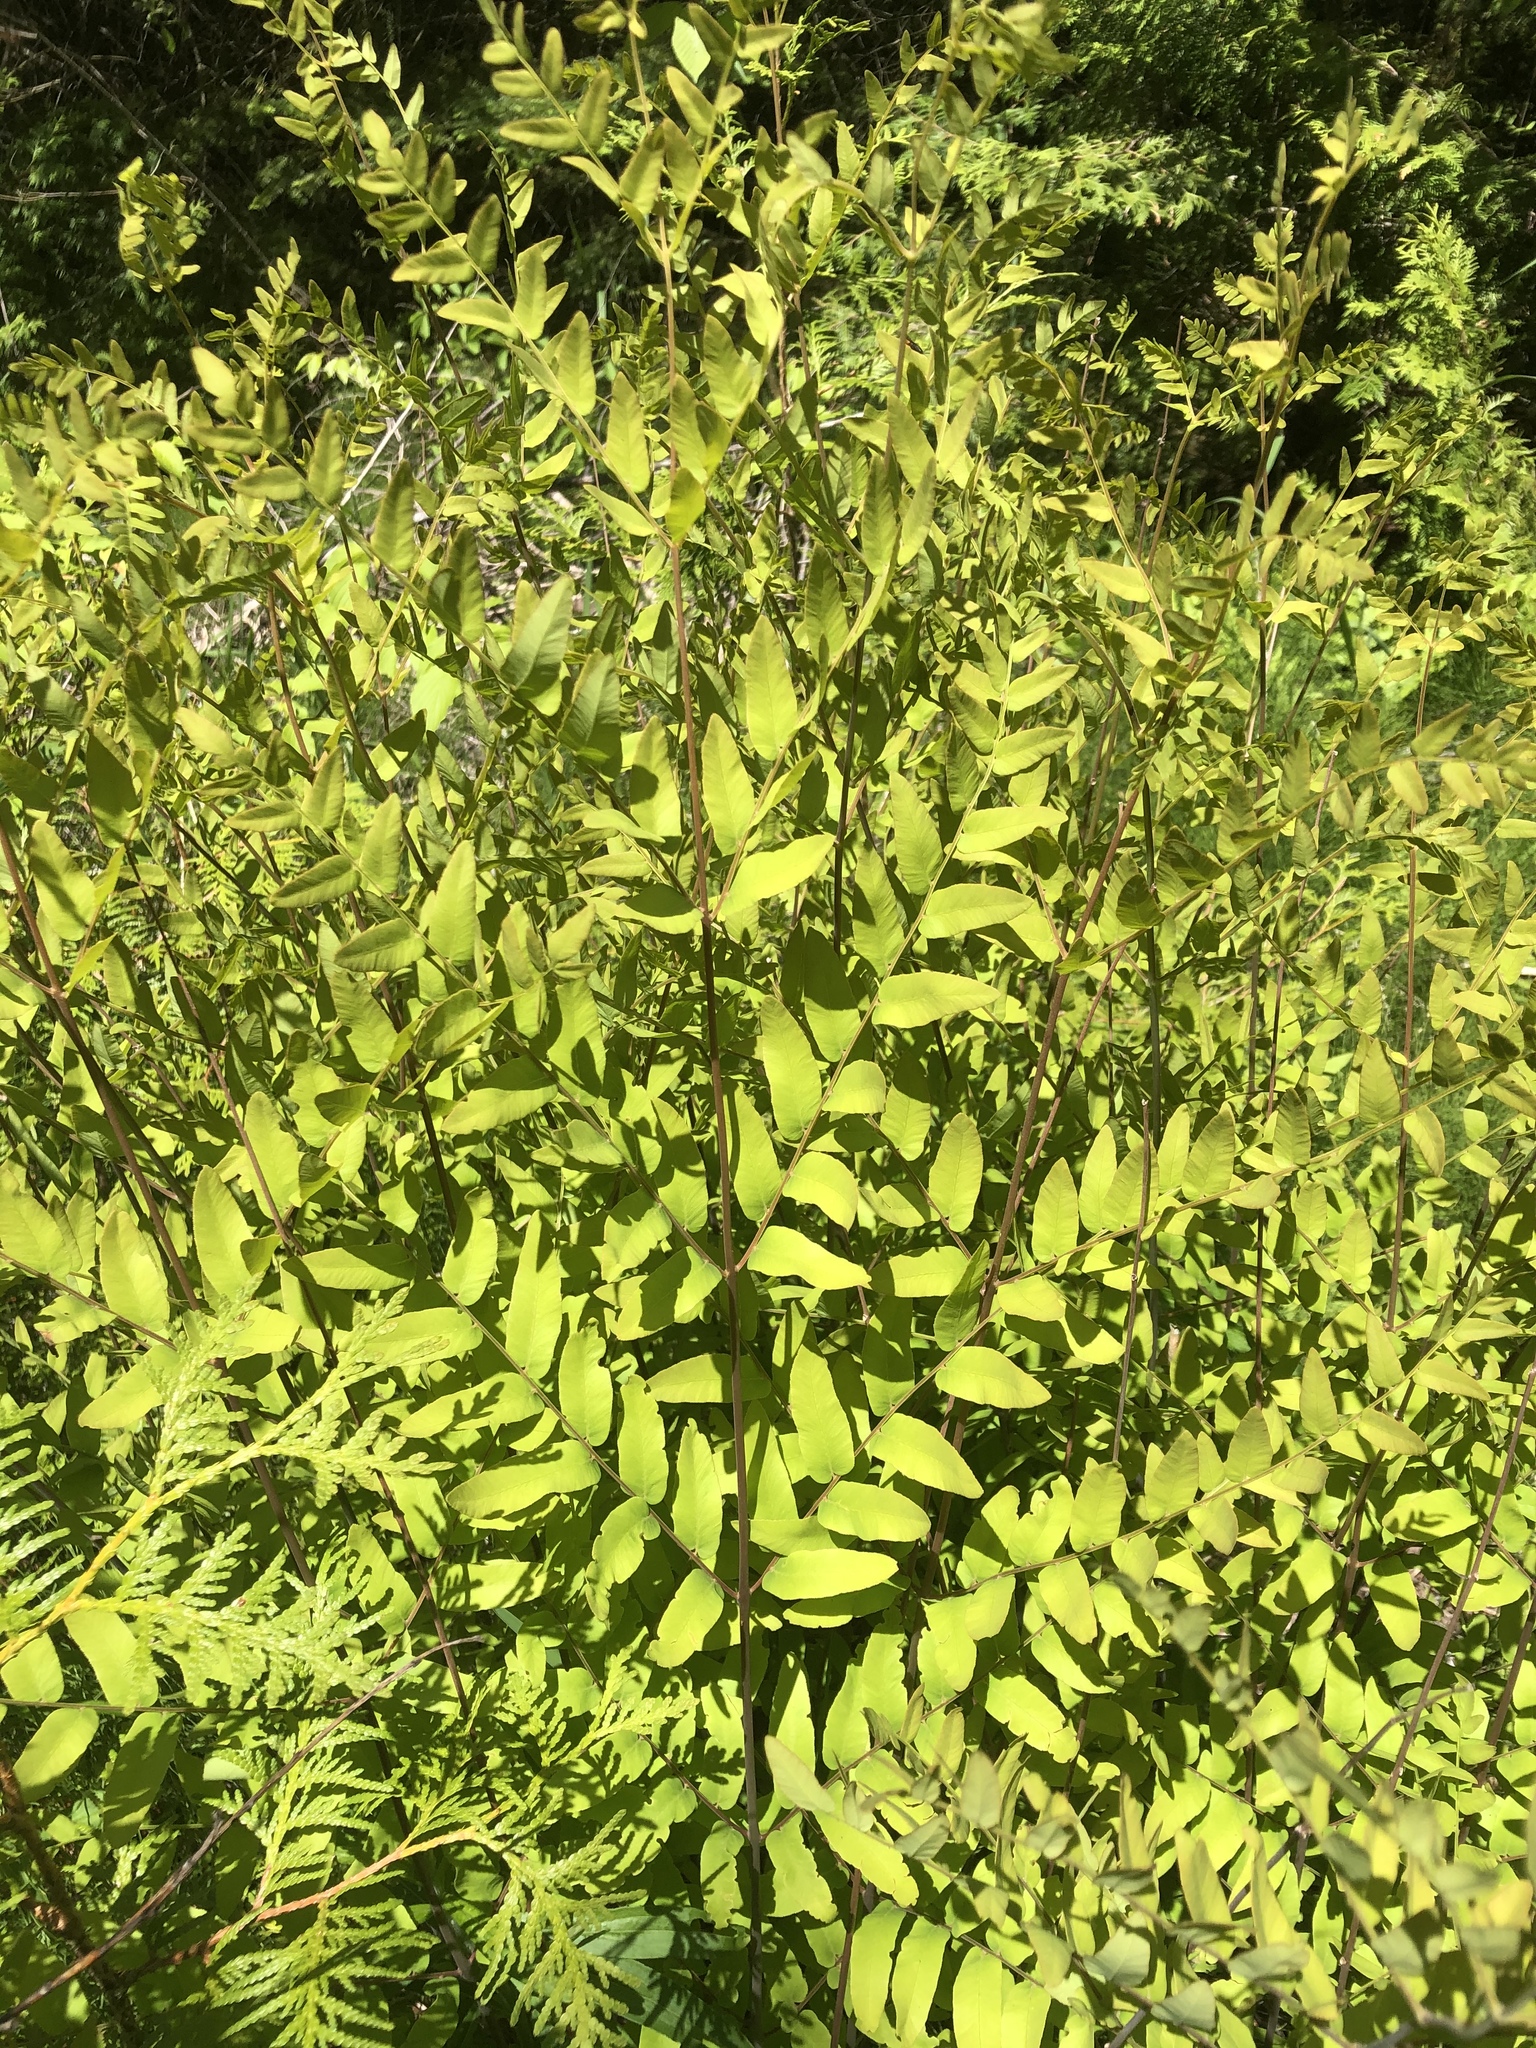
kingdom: Plantae
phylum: Tracheophyta
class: Polypodiopsida
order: Osmundales
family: Osmundaceae
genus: Osmunda
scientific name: Osmunda spectabilis
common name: American royal fern
